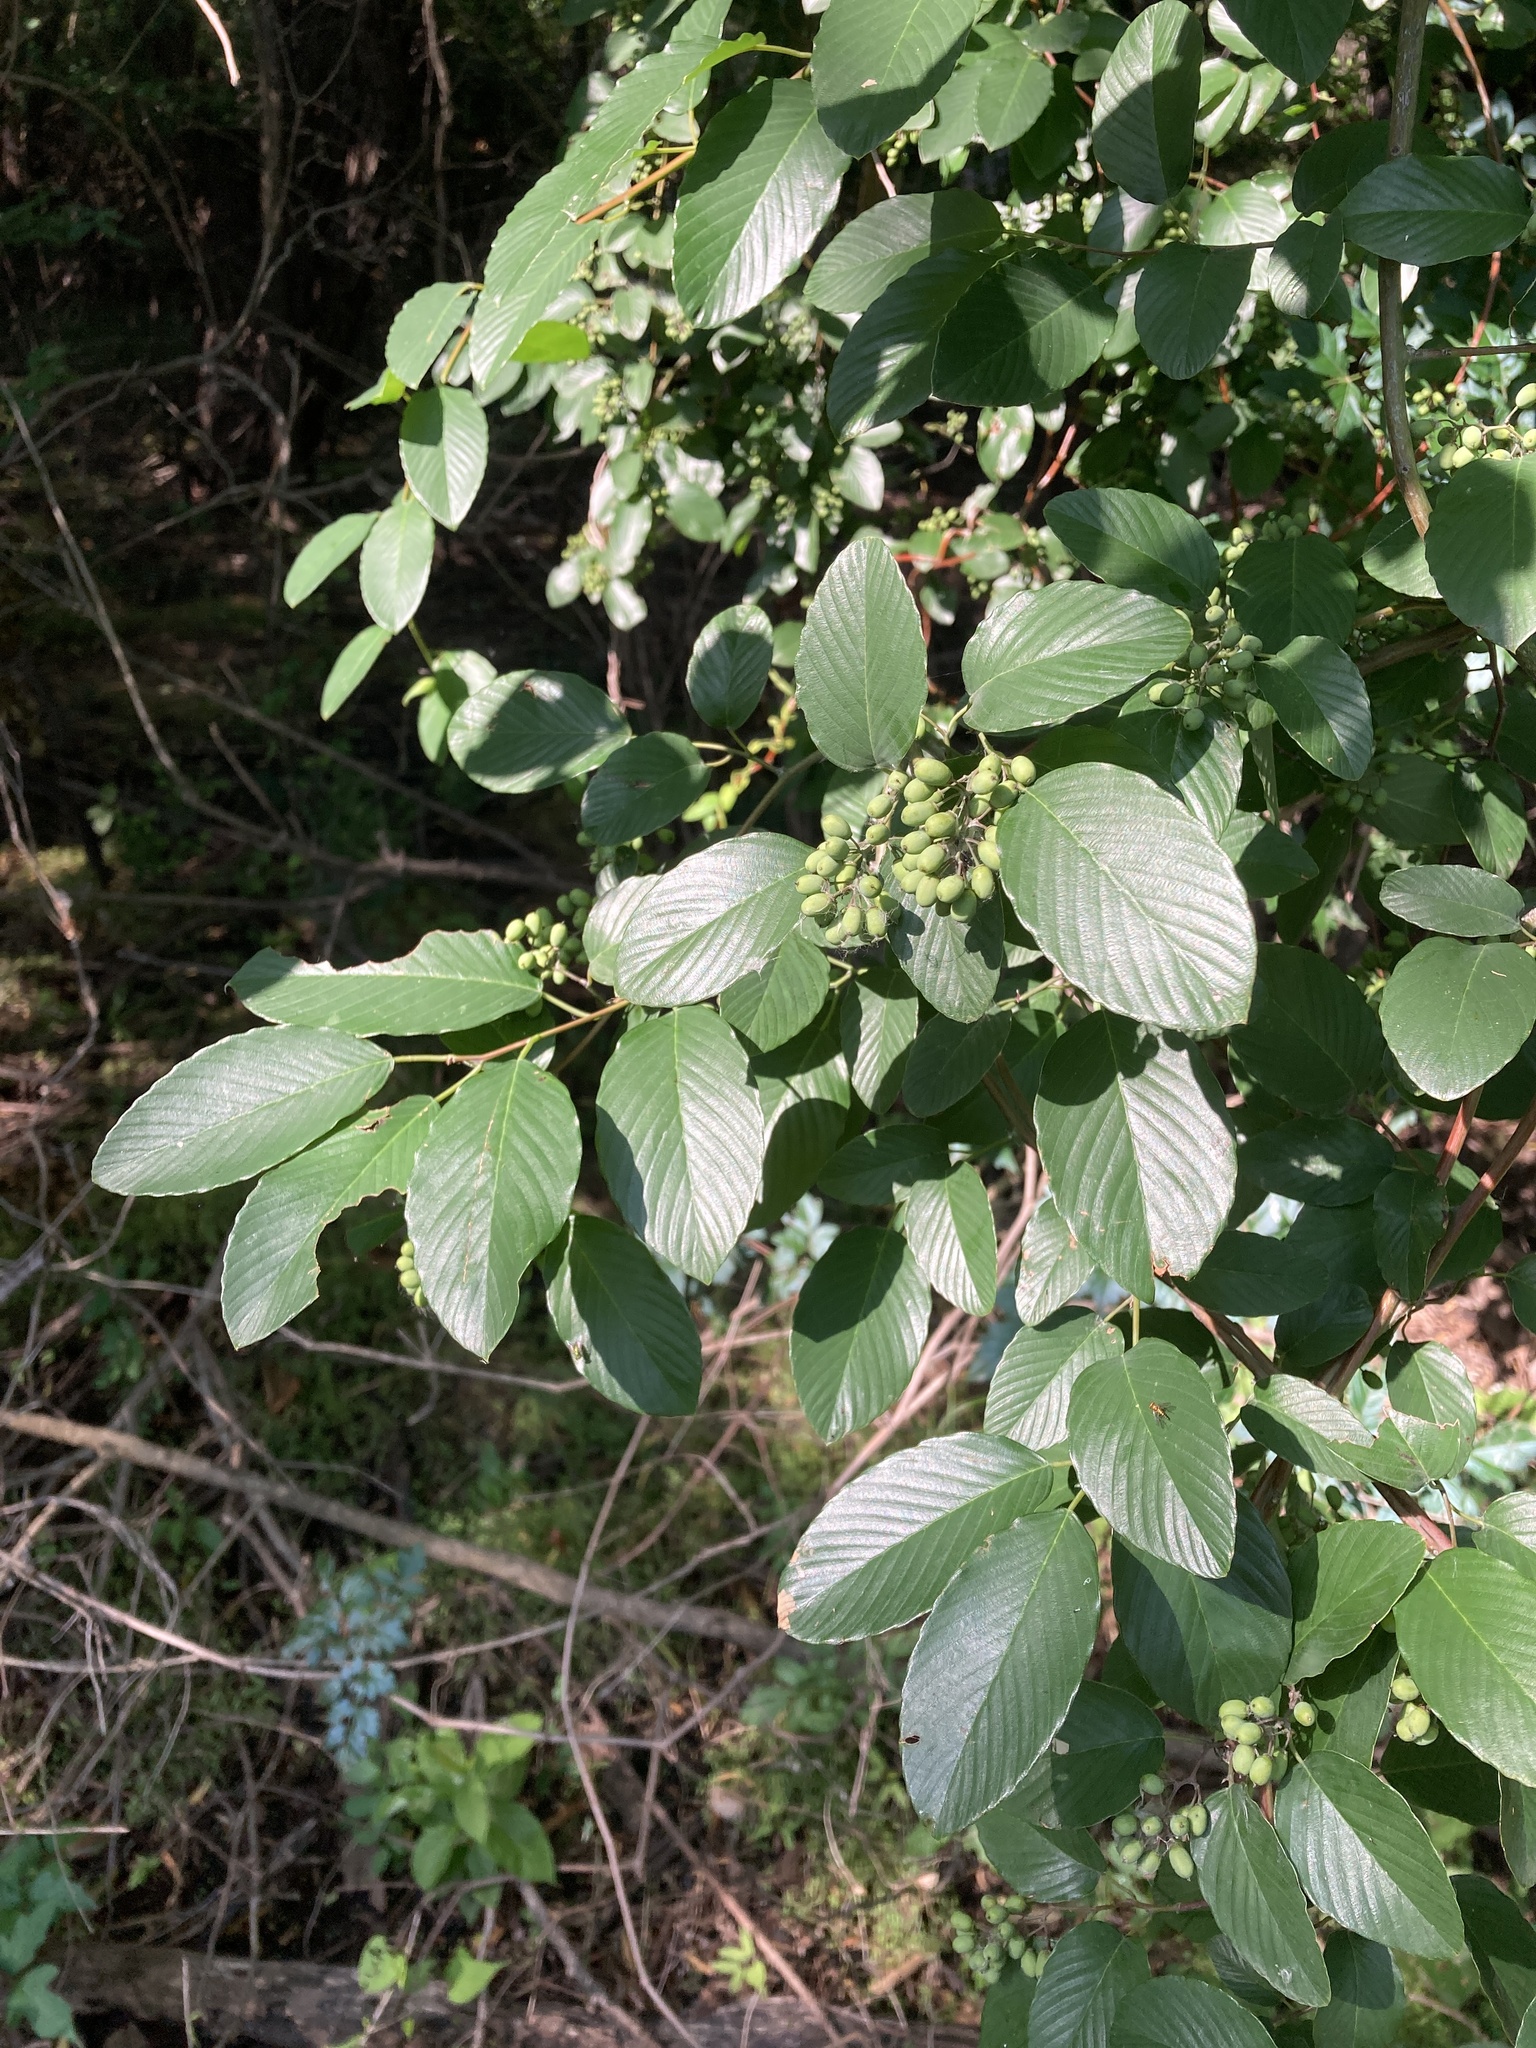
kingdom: Plantae
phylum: Tracheophyta
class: Magnoliopsida
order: Rosales
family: Rhamnaceae
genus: Berchemia
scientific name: Berchemia scandens
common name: Supplejack
